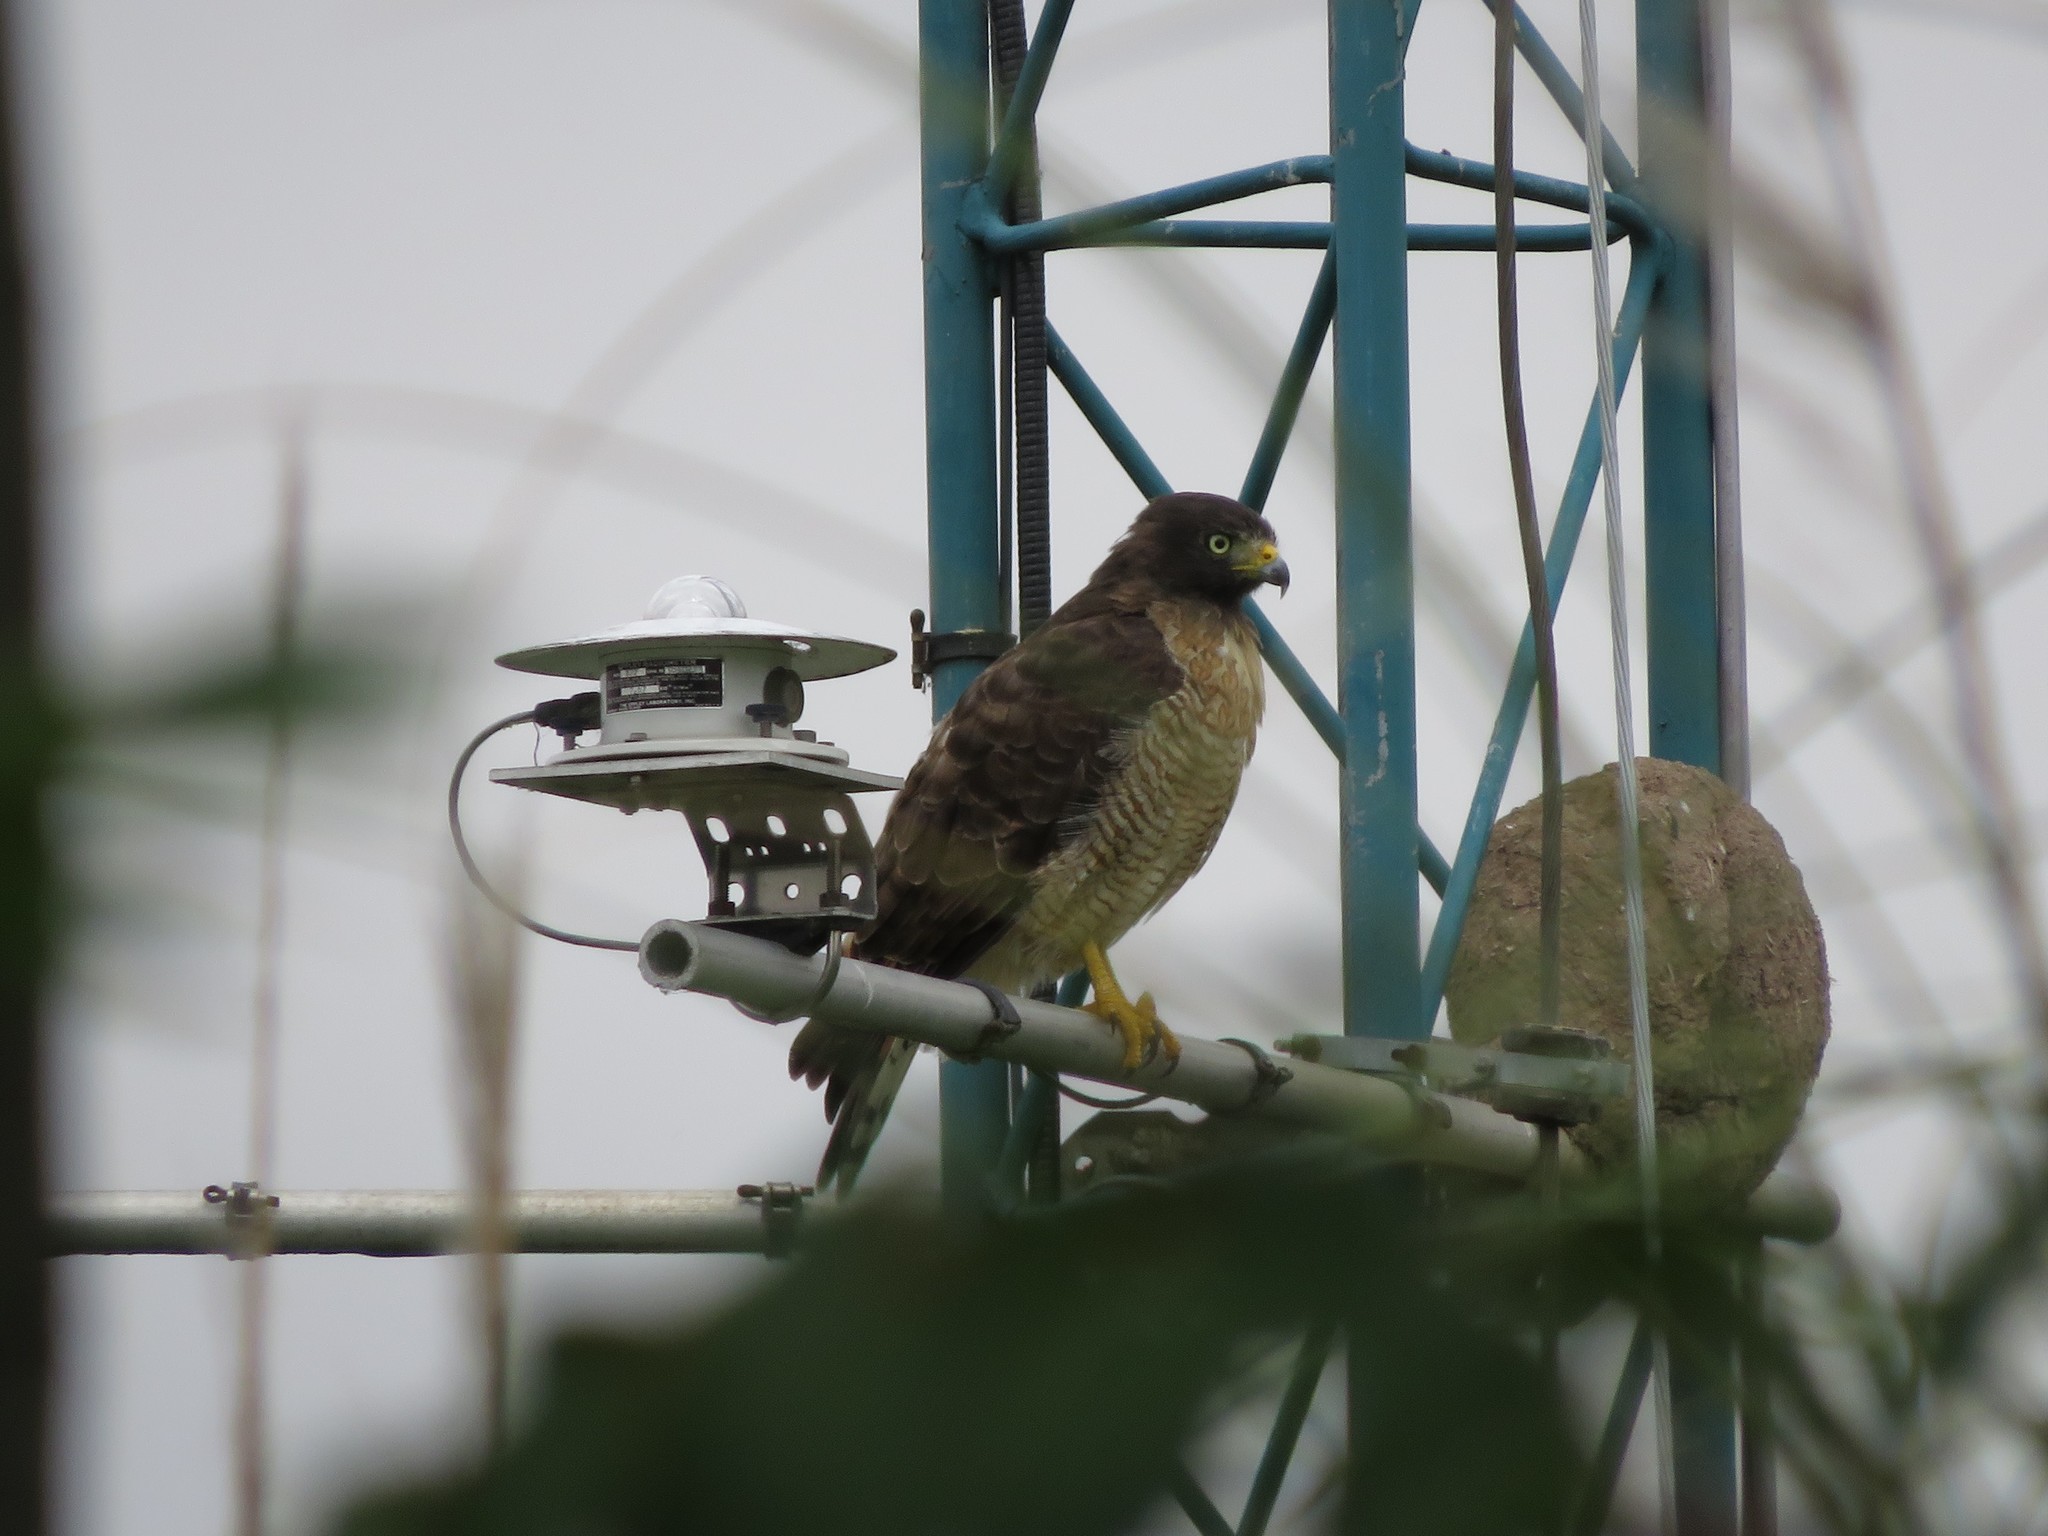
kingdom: Animalia
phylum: Chordata
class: Aves
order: Accipitriformes
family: Accipitridae
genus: Rupornis
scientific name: Rupornis magnirostris
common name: Roadside hawk
